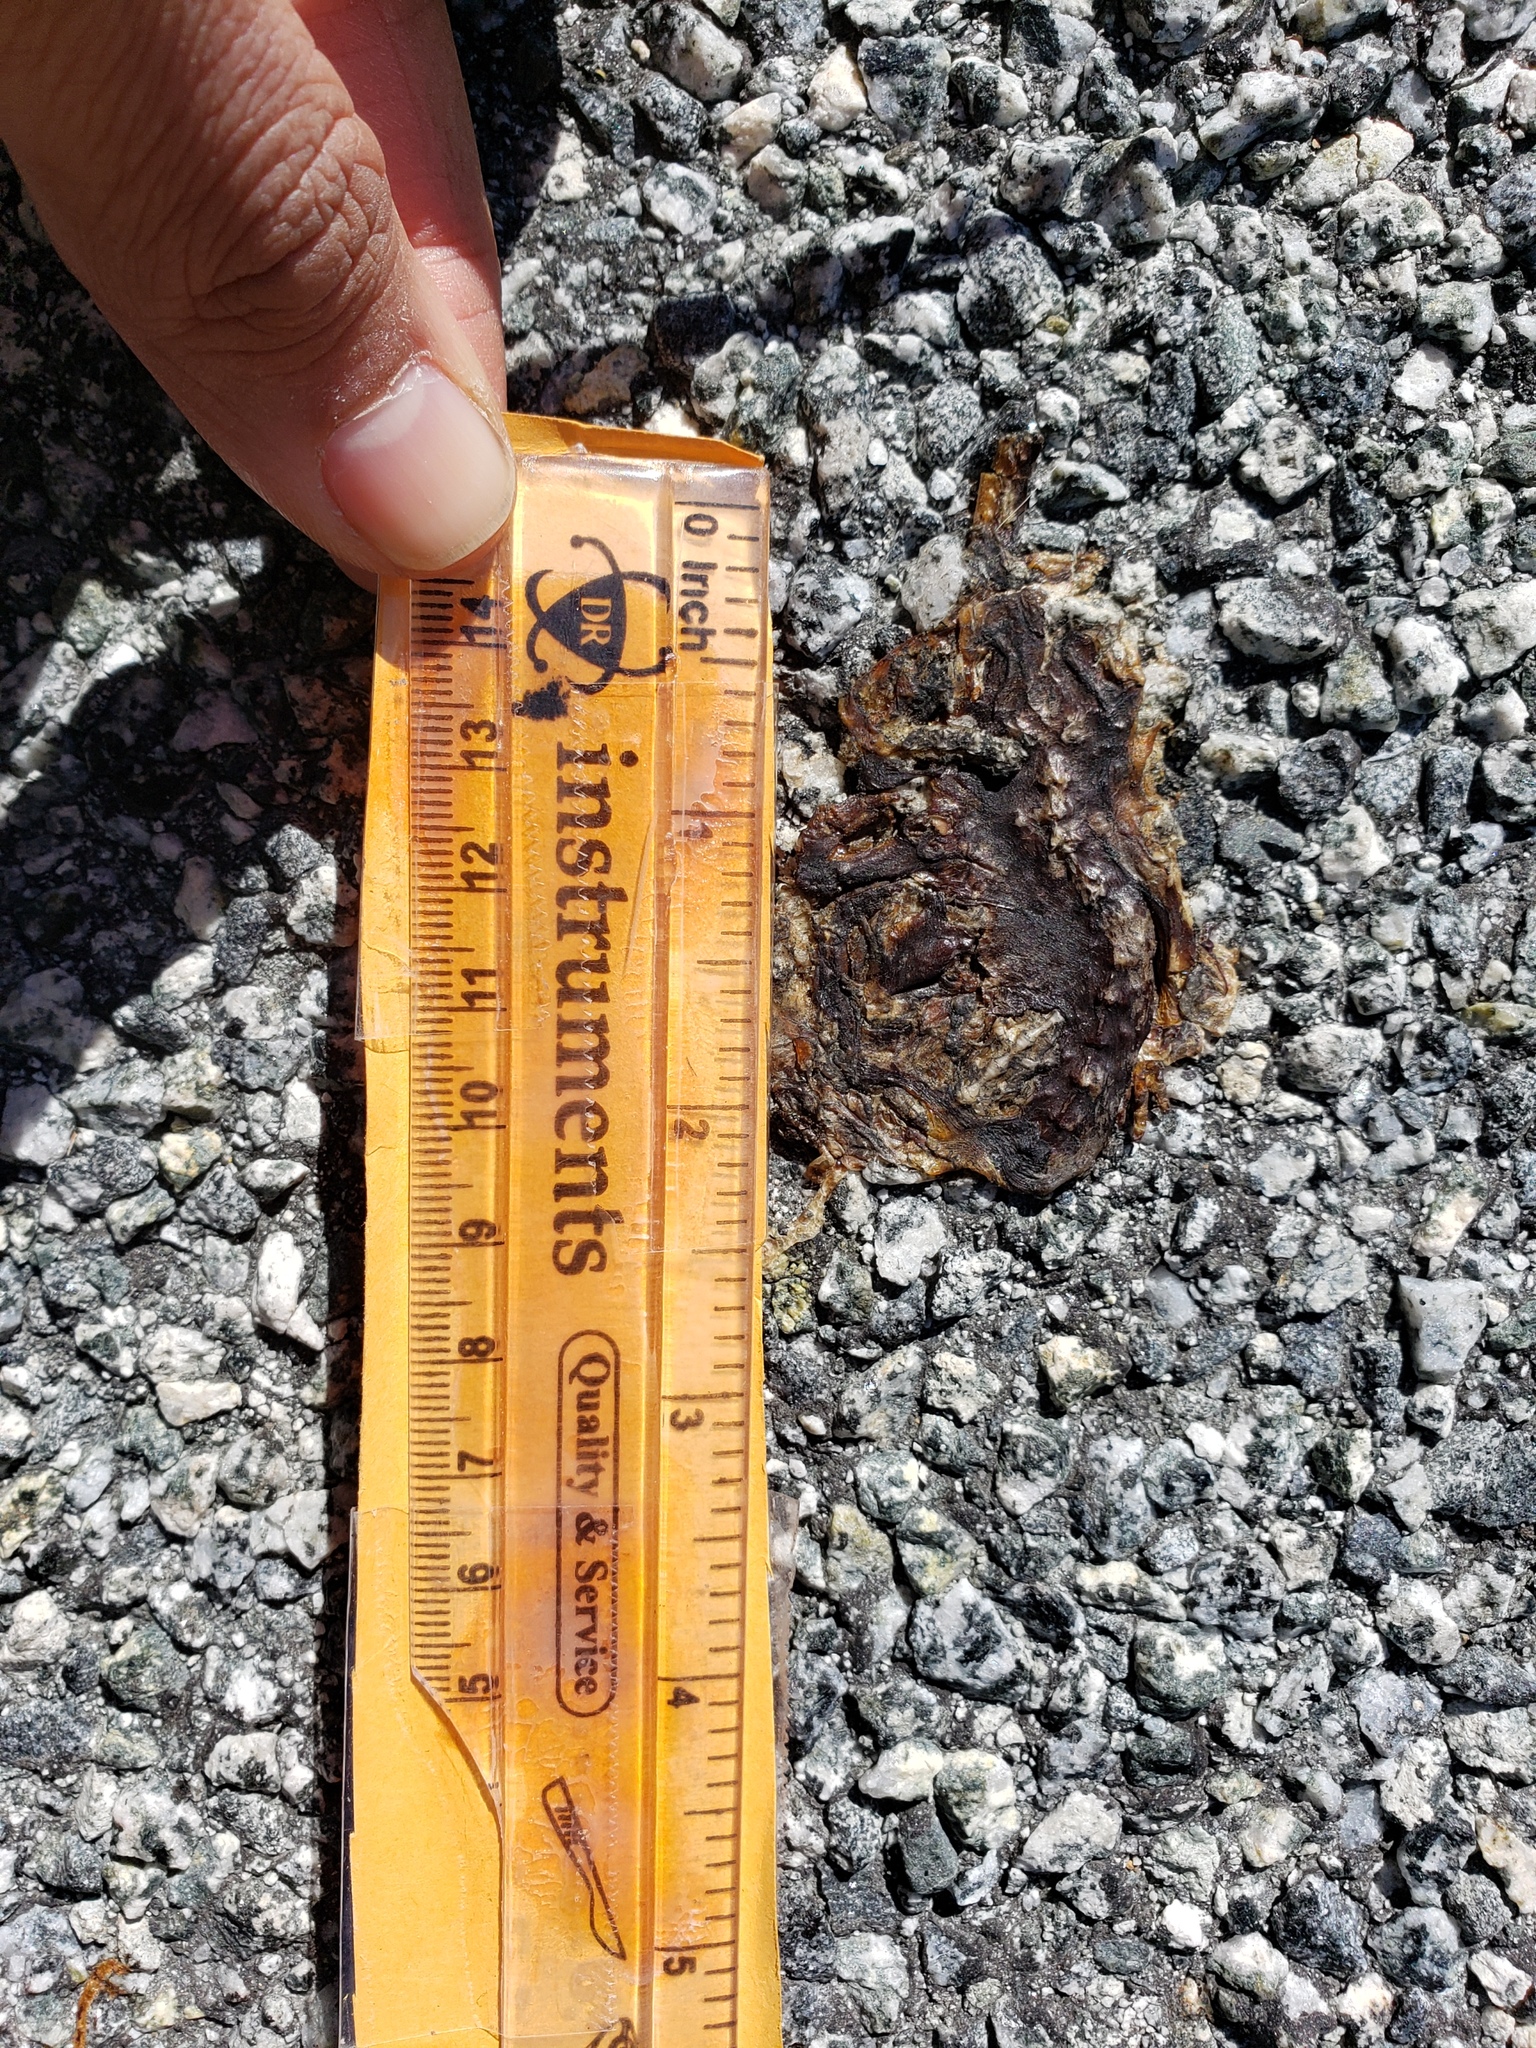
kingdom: Animalia
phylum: Chordata
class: Amphibia
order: Caudata
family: Salamandridae
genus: Taricha
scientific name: Taricha
